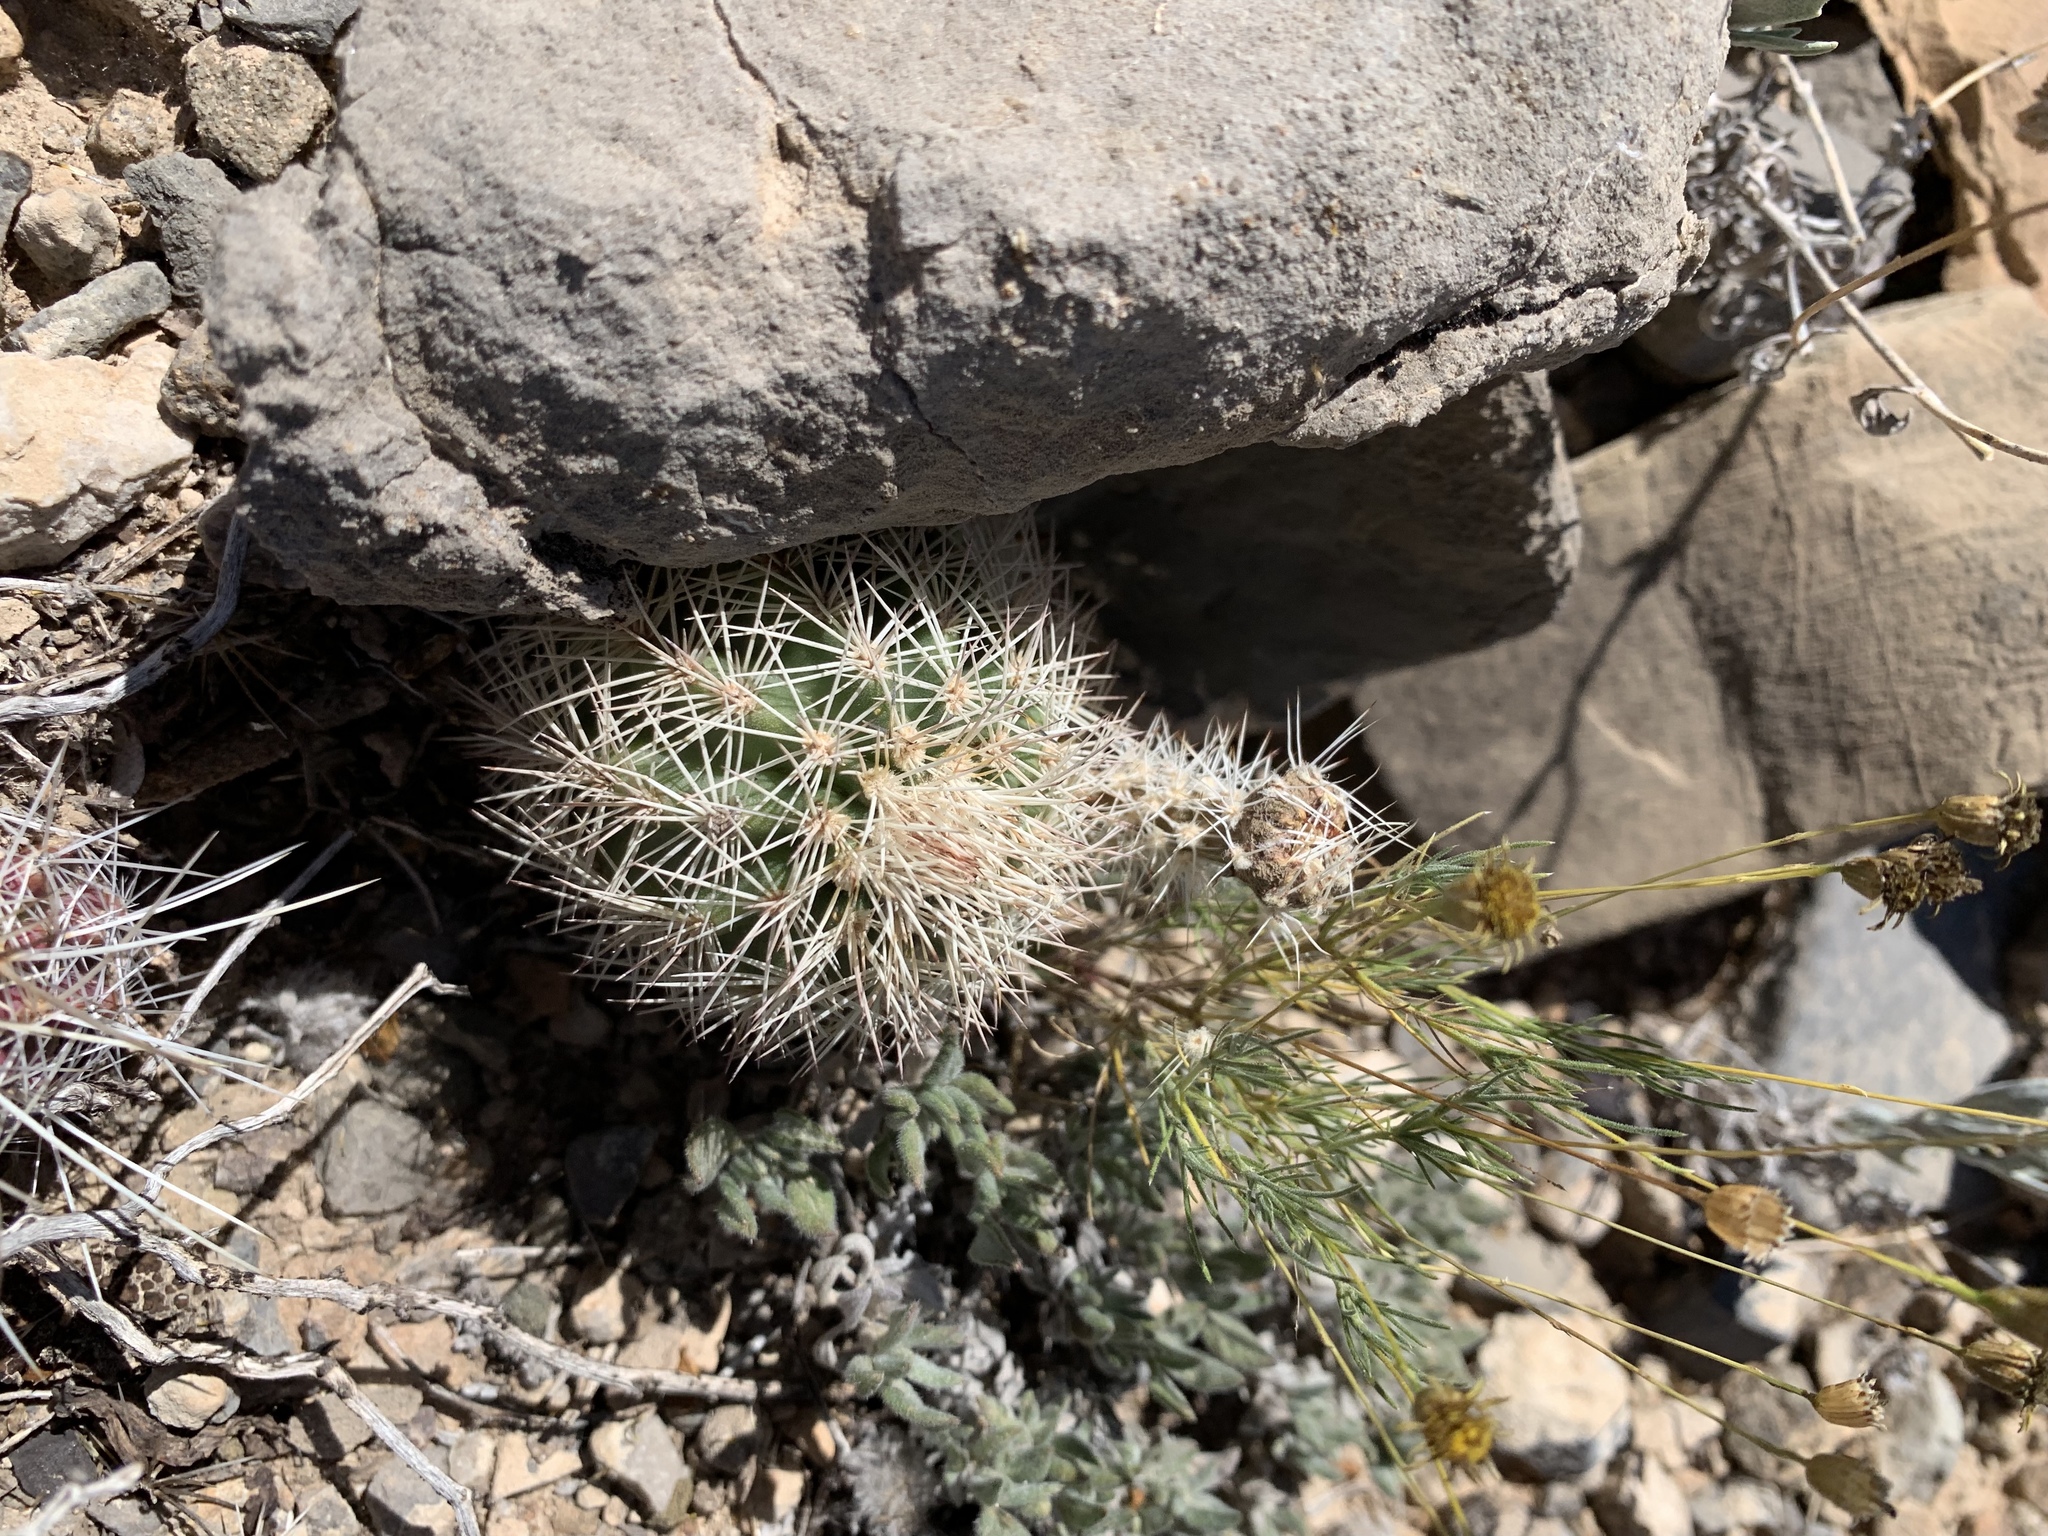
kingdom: Plantae
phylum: Tracheophyta
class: Magnoliopsida
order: Caryophyllales
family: Cactaceae
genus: Echinocereus
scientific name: Echinocereus dasyacanthus
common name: Spiny hedgehog cactus
